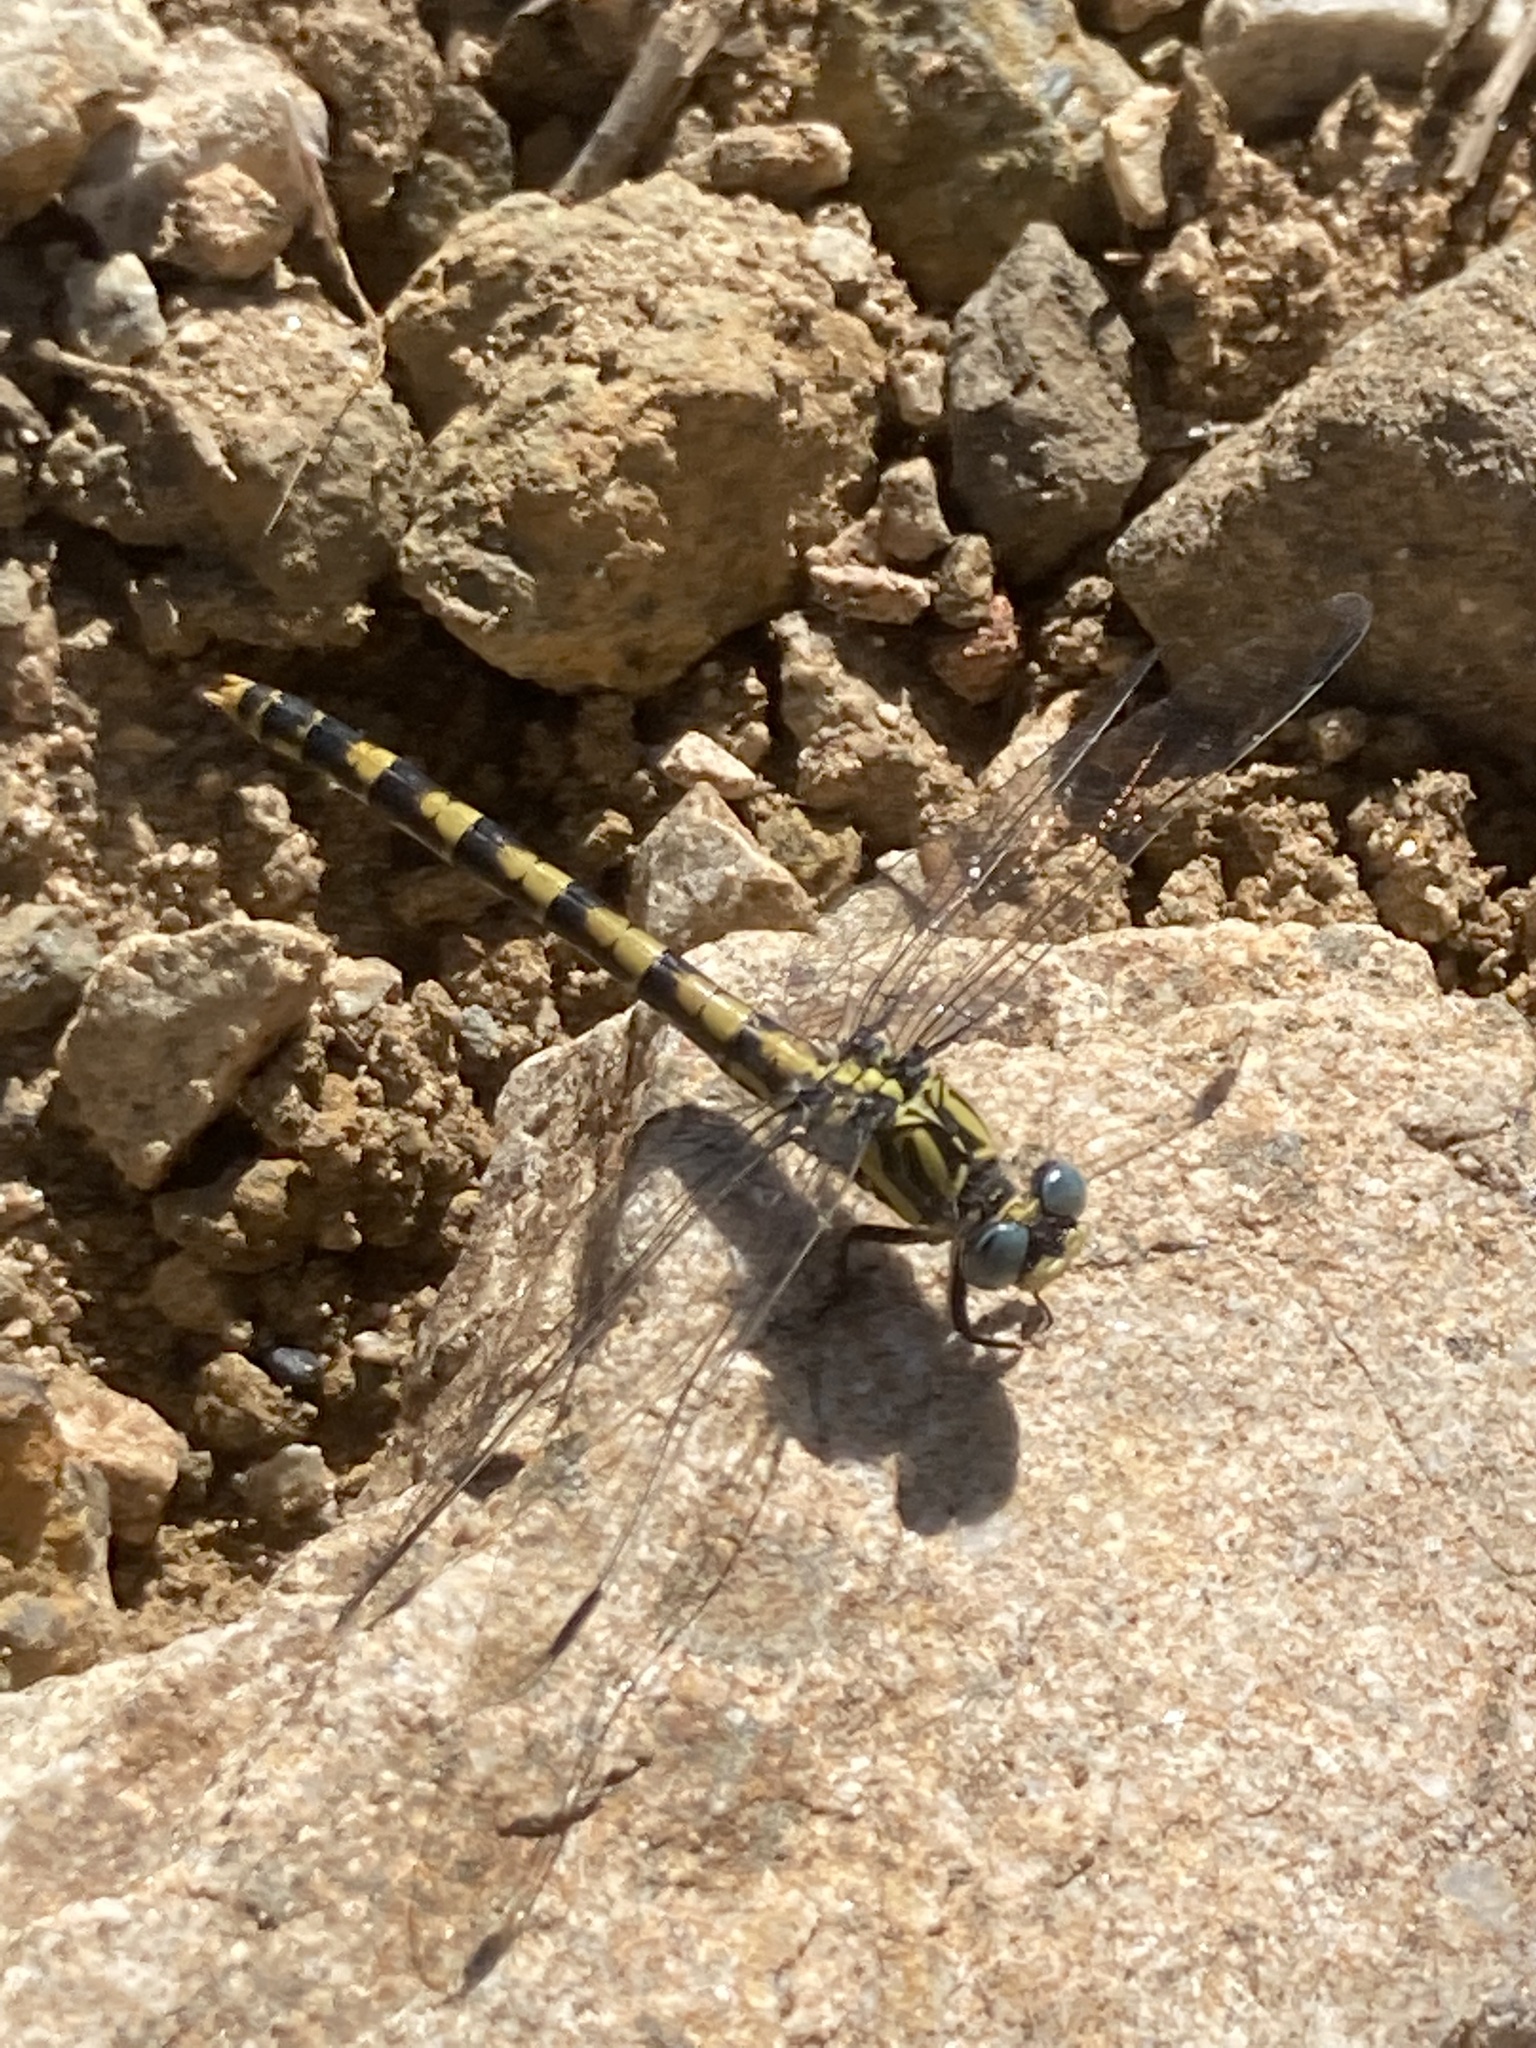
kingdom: Animalia
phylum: Arthropoda
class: Insecta
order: Odonata
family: Gomphidae
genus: Onychogomphus
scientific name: Onychogomphus uncatus
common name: Large pincertail
